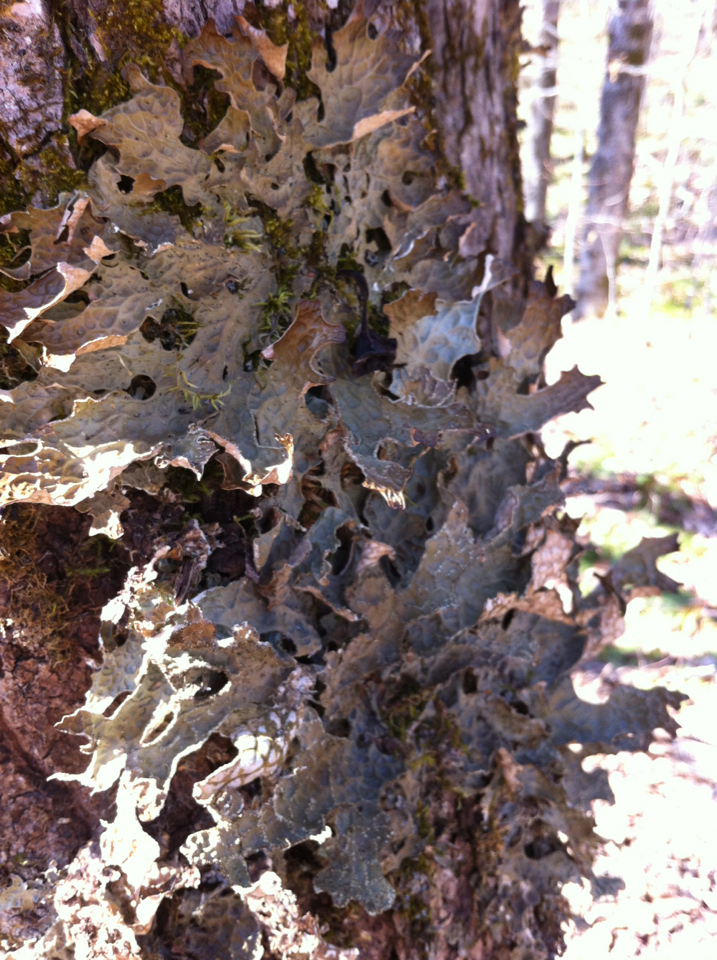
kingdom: Fungi
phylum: Ascomycota
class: Lecanoromycetes
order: Peltigerales
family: Lobariaceae
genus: Lobaria
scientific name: Lobaria pulmonaria
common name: Lungwort
